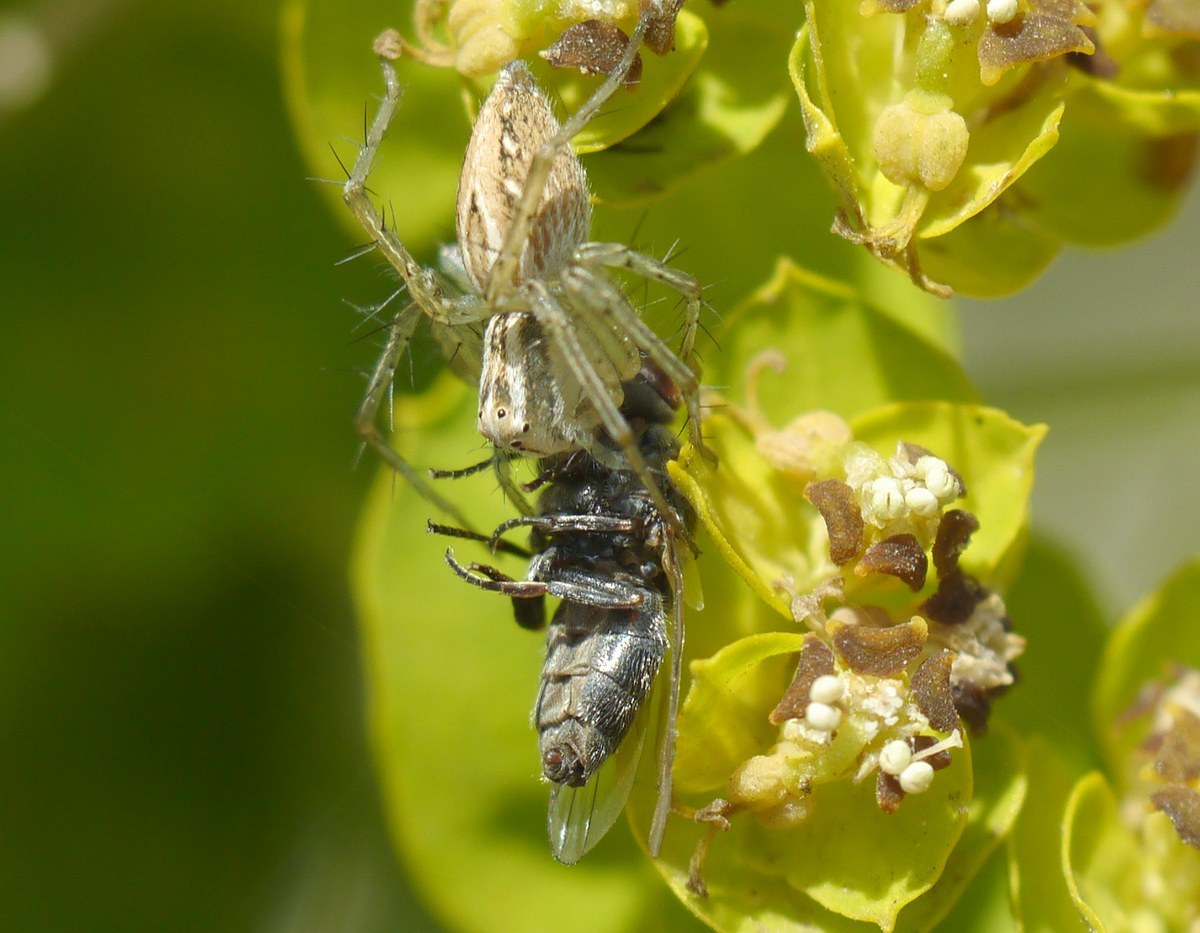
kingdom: Animalia
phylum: Arthropoda
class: Arachnida
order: Araneae
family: Oxyopidae
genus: Oxyopes
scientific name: Oxyopes lineatus
